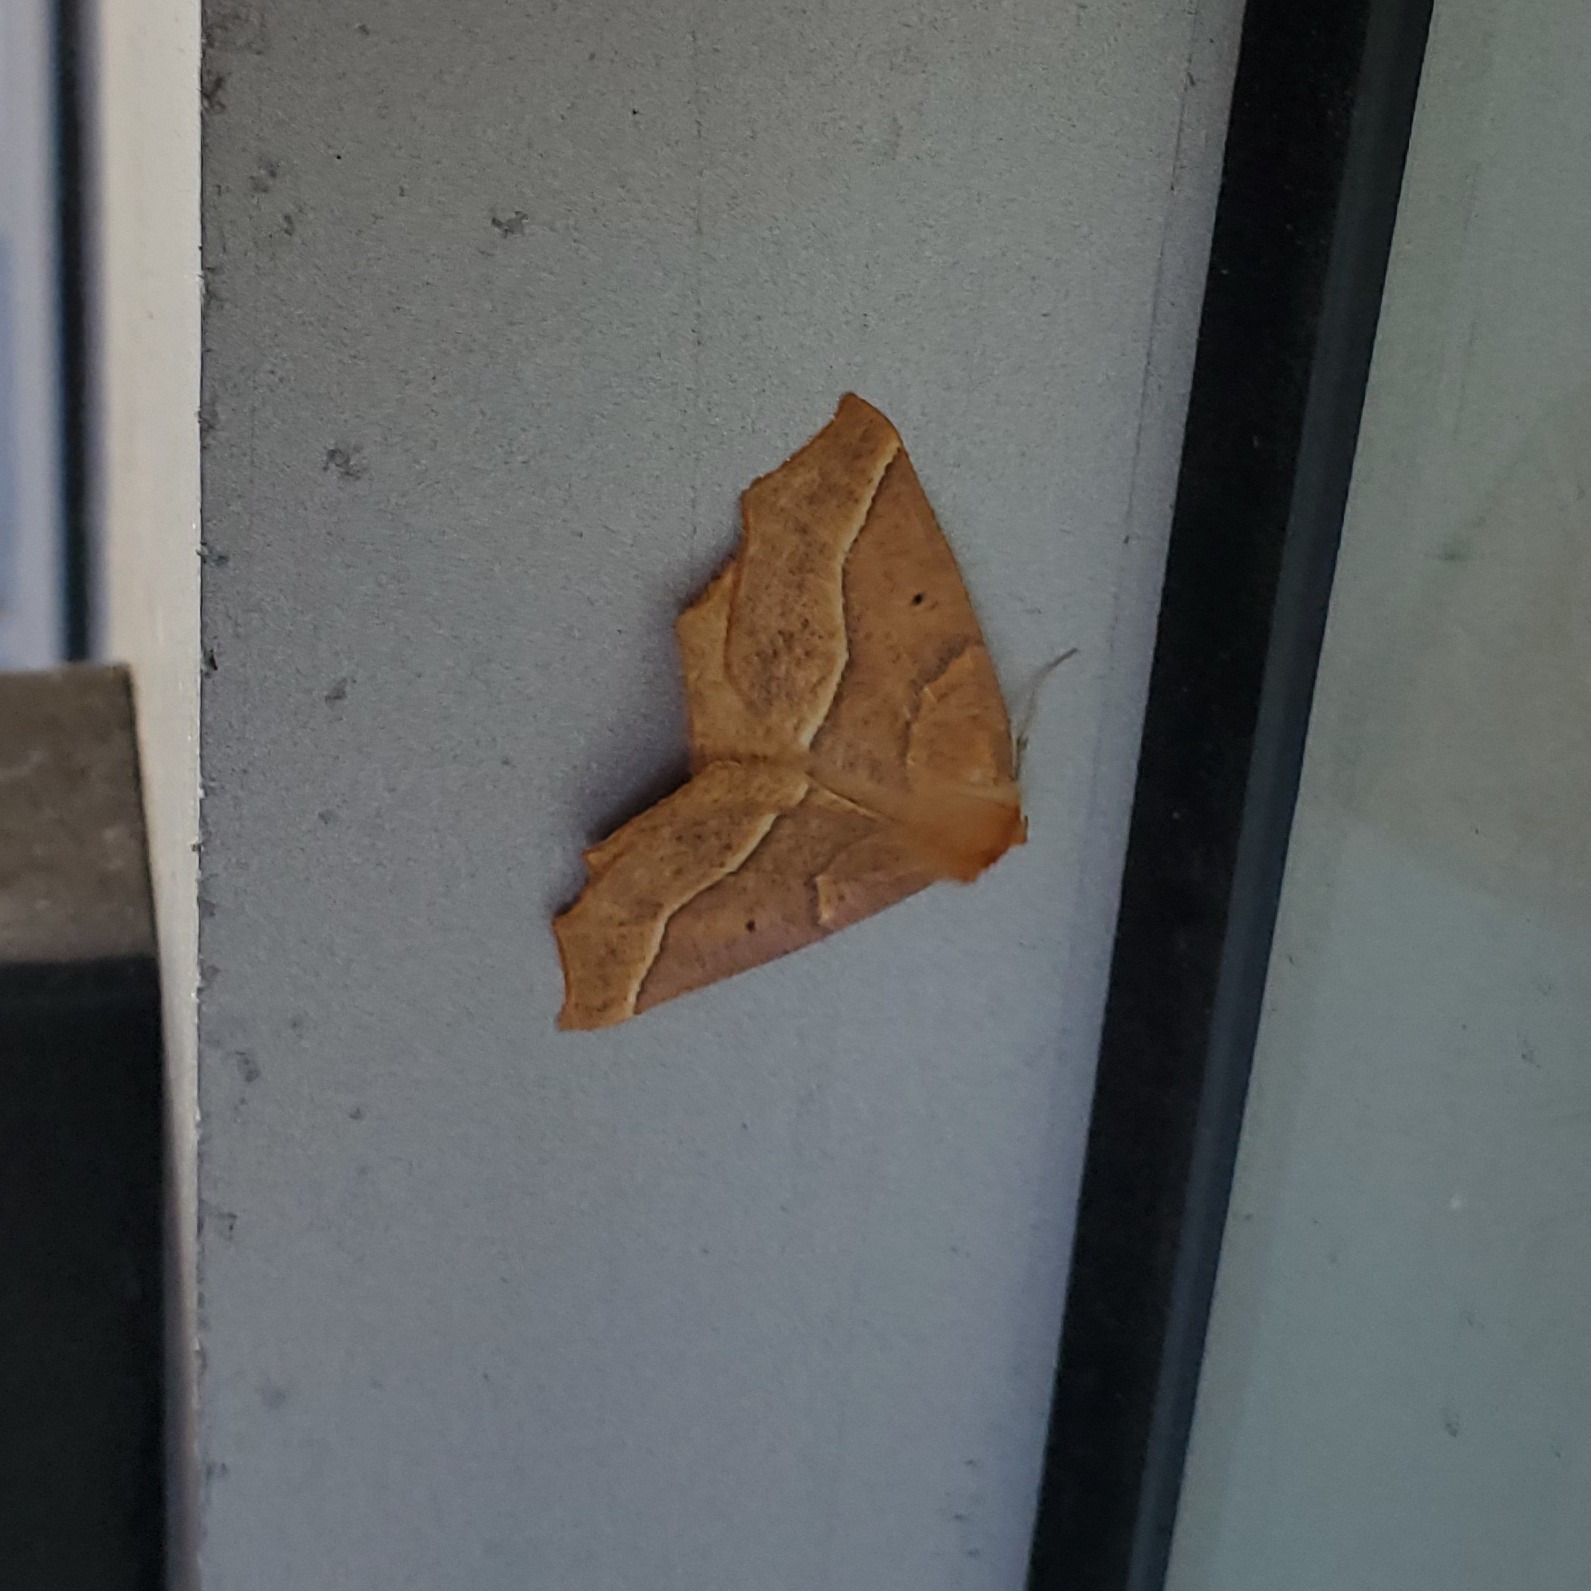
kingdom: Animalia
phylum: Arthropoda
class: Insecta
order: Lepidoptera
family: Geometridae
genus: Synaxis
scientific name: Synaxis jubararia
